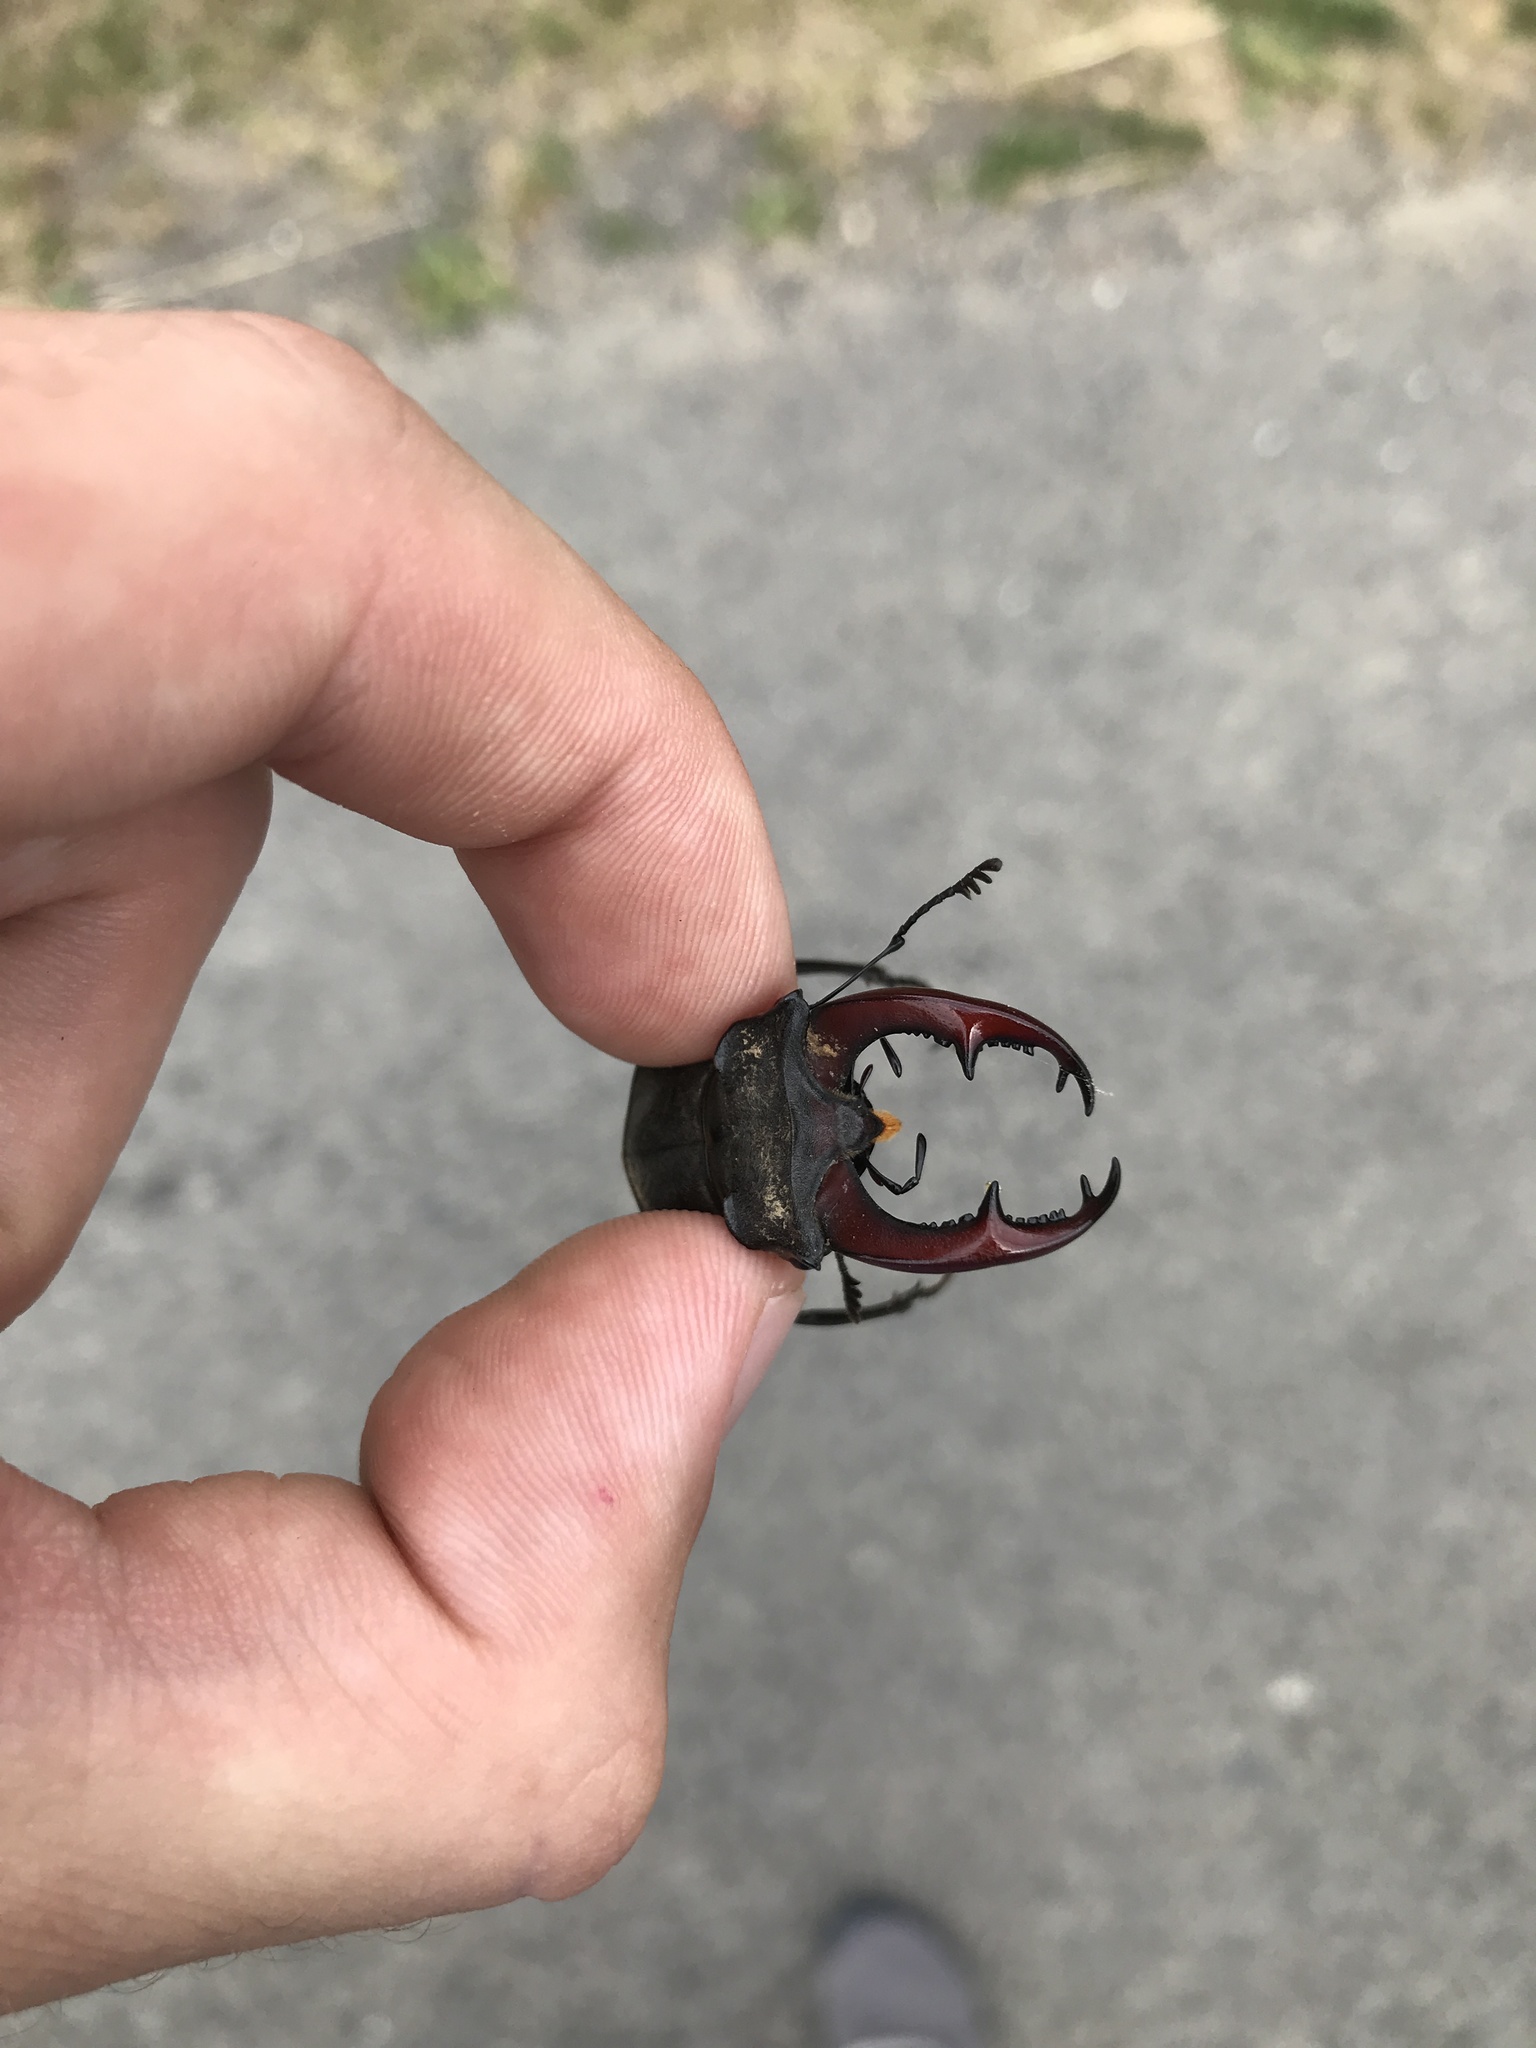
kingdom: Animalia
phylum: Arthropoda
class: Insecta
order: Coleoptera
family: Lucanidae
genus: Lucanus
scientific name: Lucanus cervus
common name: Stag beetle
